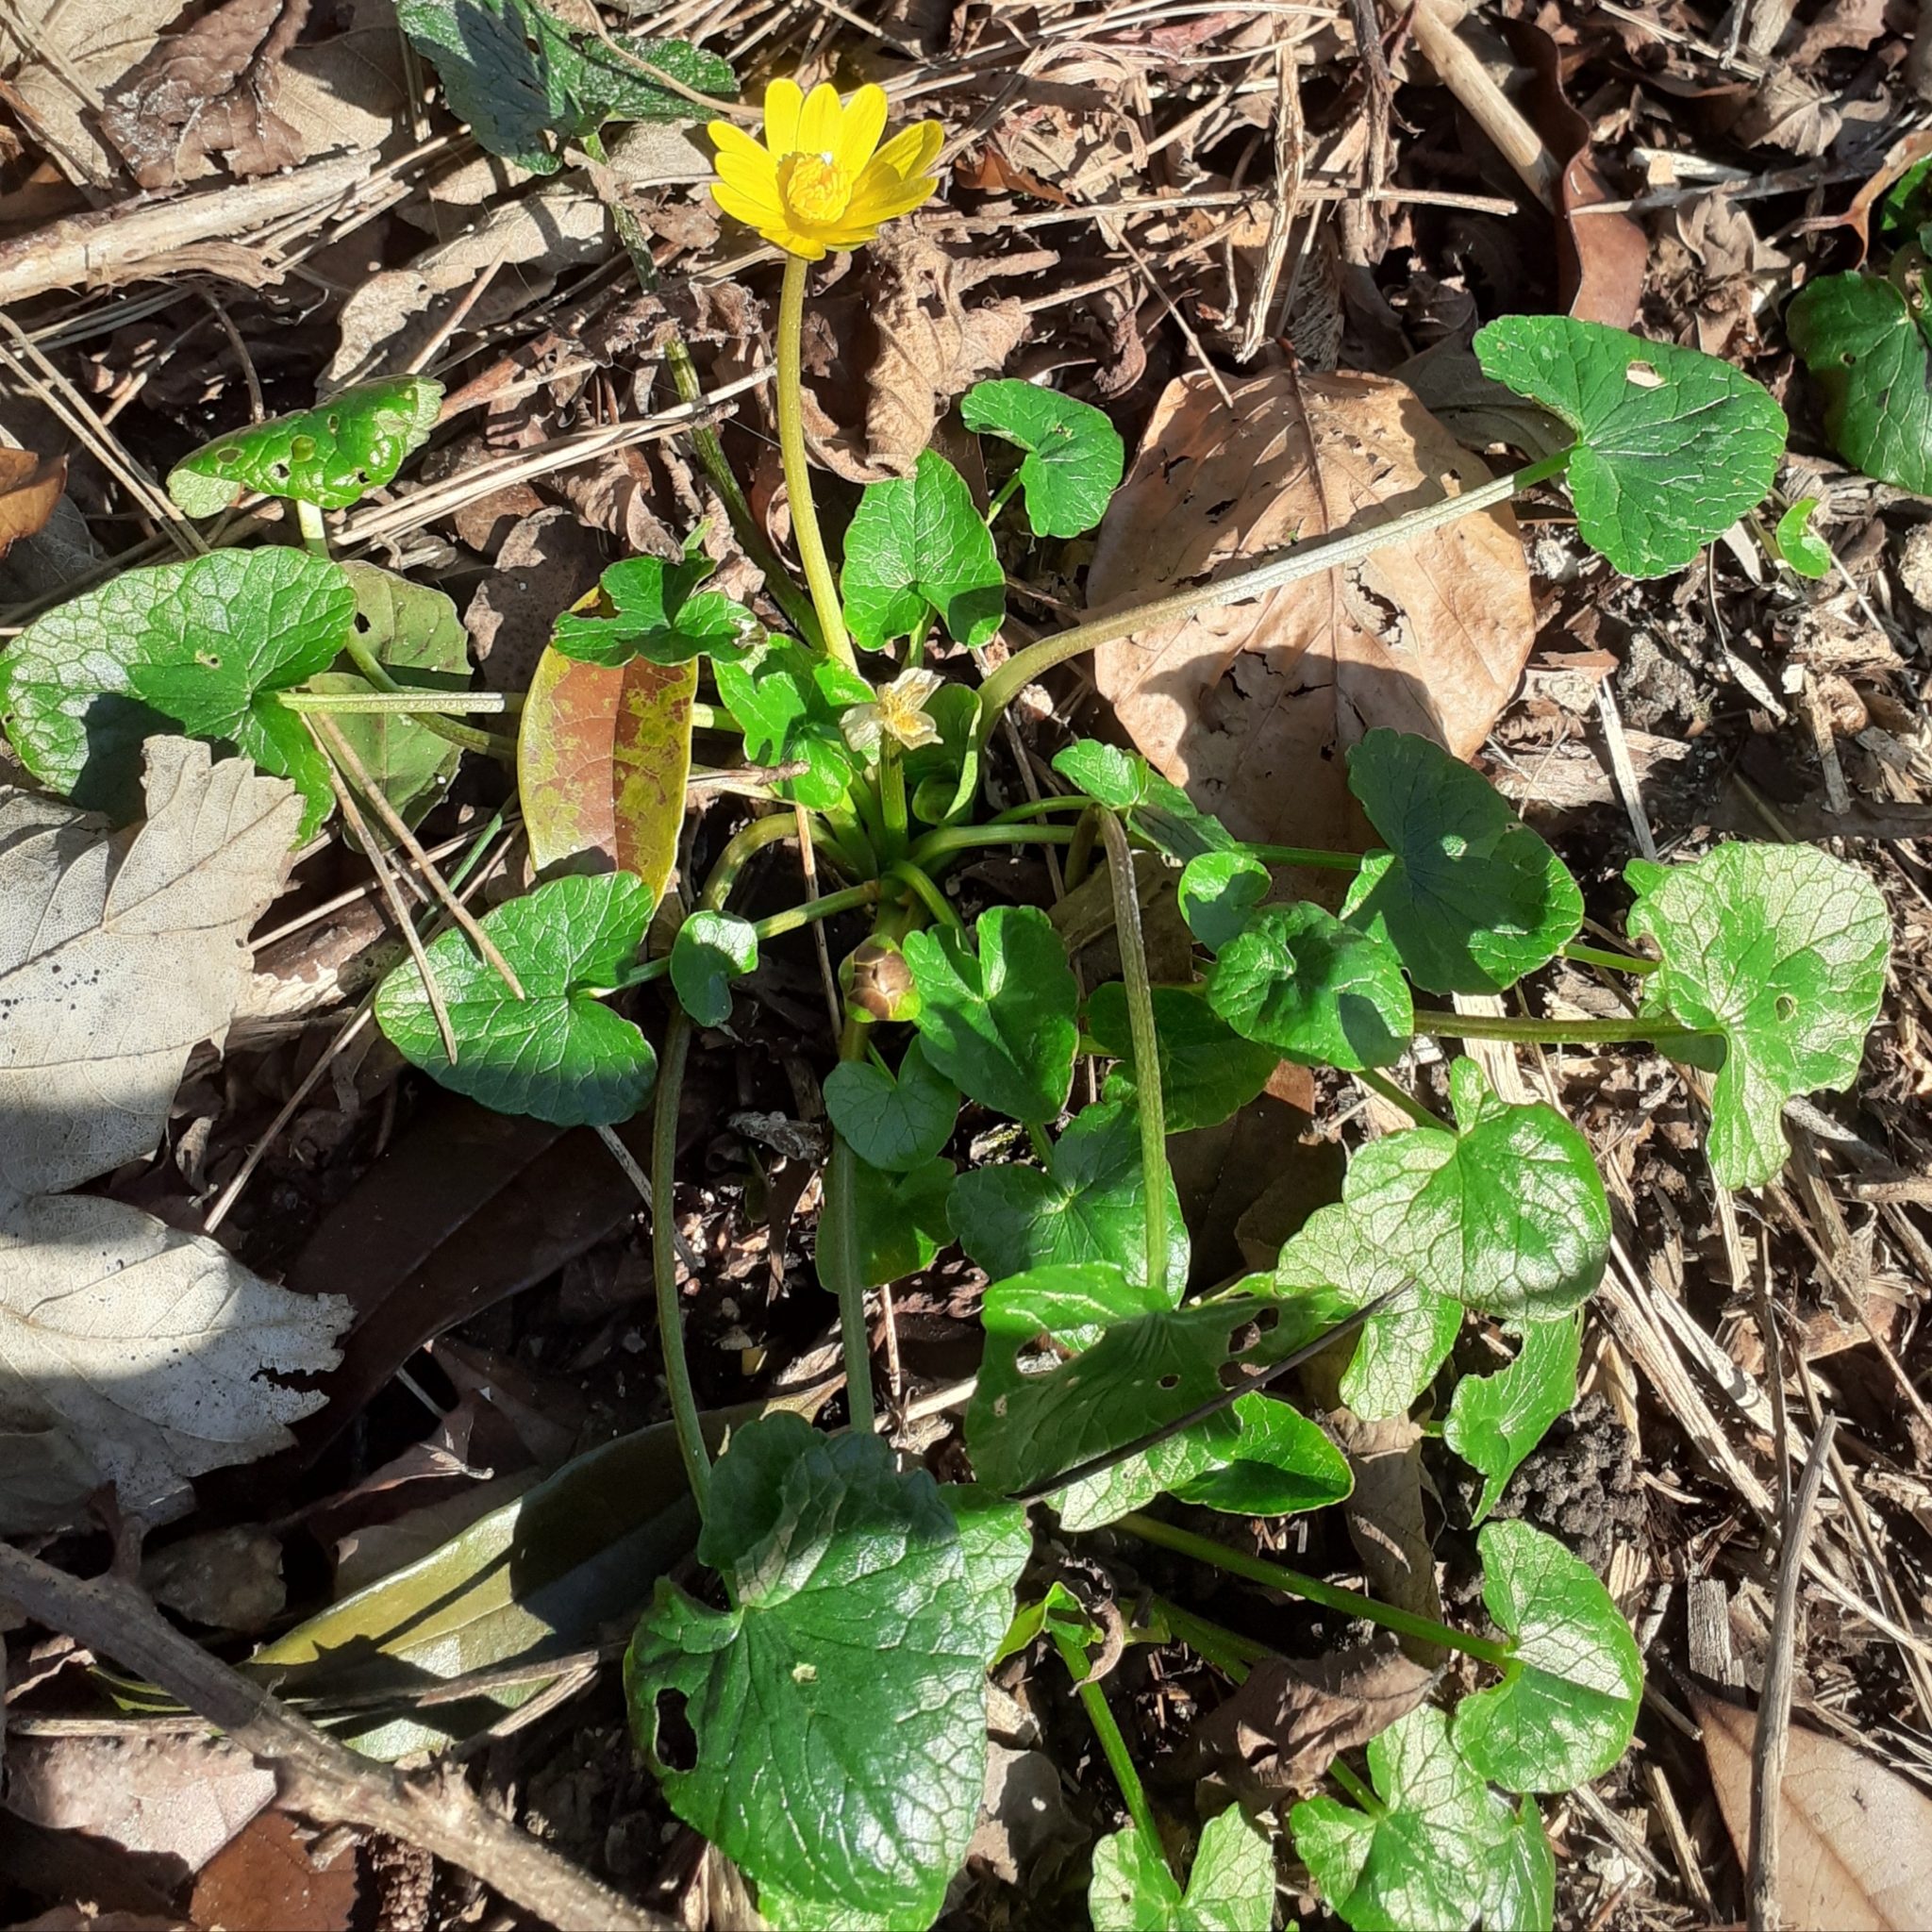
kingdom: Plantae
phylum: Tracheophyta
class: Magnoliopsida
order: Ranunculales
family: Ranunculaceae
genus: Ficaria
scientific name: Ficaria verna
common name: Lesser celandine
